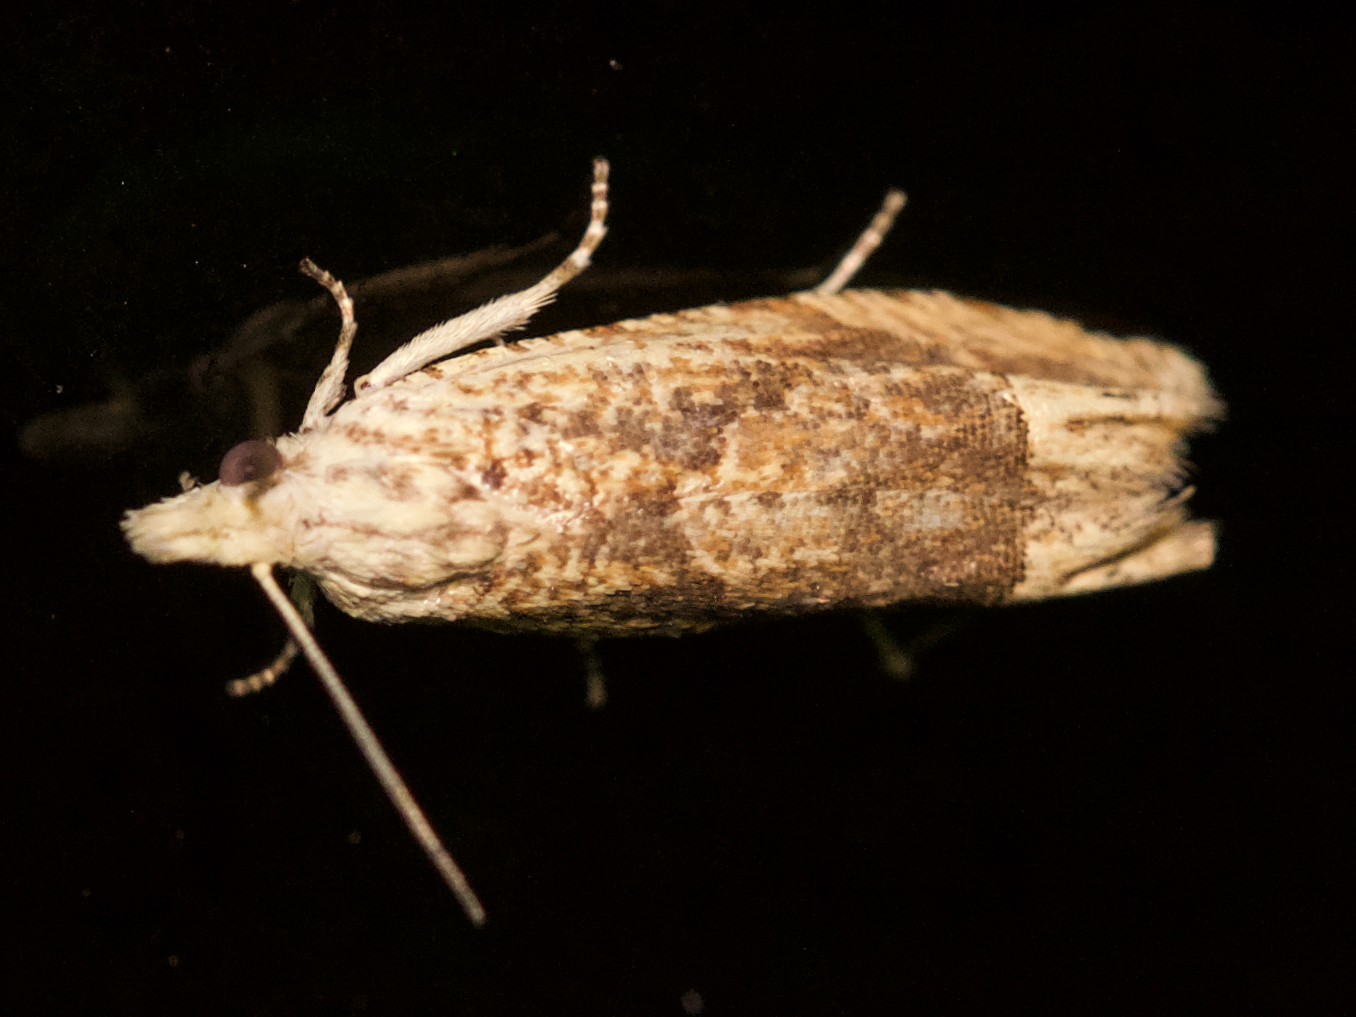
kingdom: Animalia
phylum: Arthropoda
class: Insecta
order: Lepidoptera
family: Tortricidae
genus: Eucosma
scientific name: Eucosma ochrocephala
